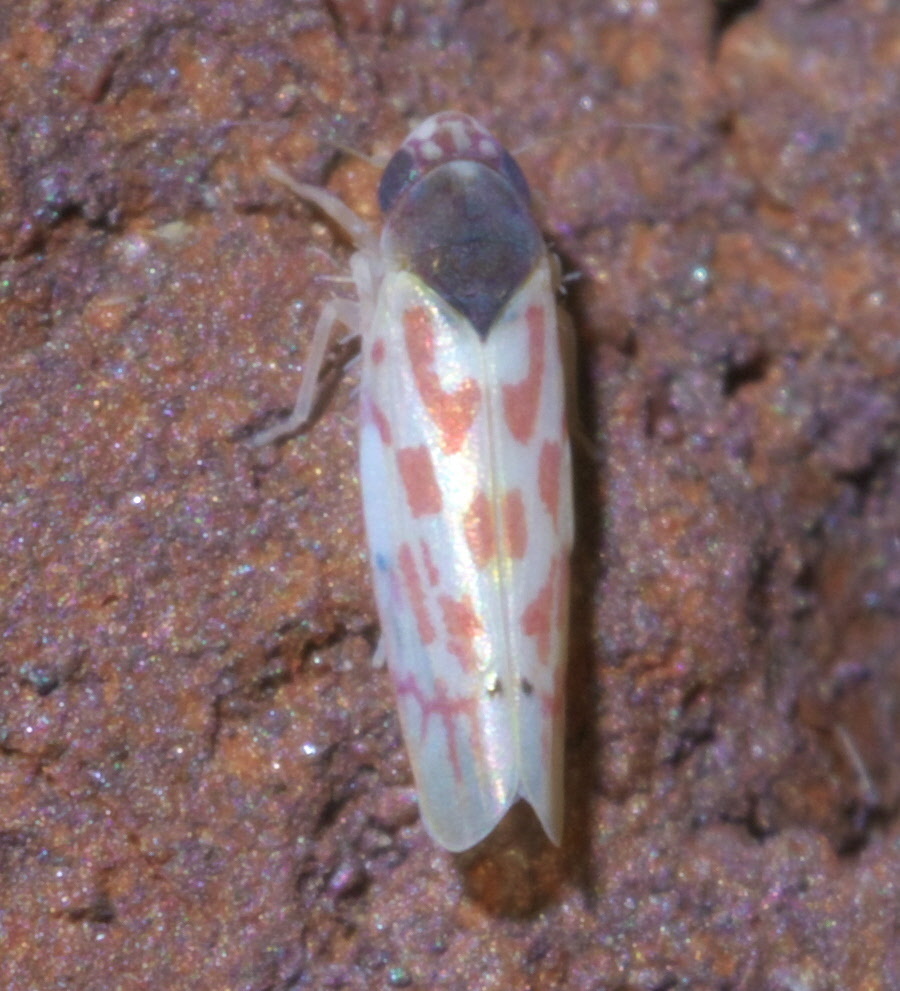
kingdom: Animalia
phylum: Arthropoda
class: Insecta
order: Hemiptera
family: Cicadellidae
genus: Eratoneura
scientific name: Eratoneura ardens
